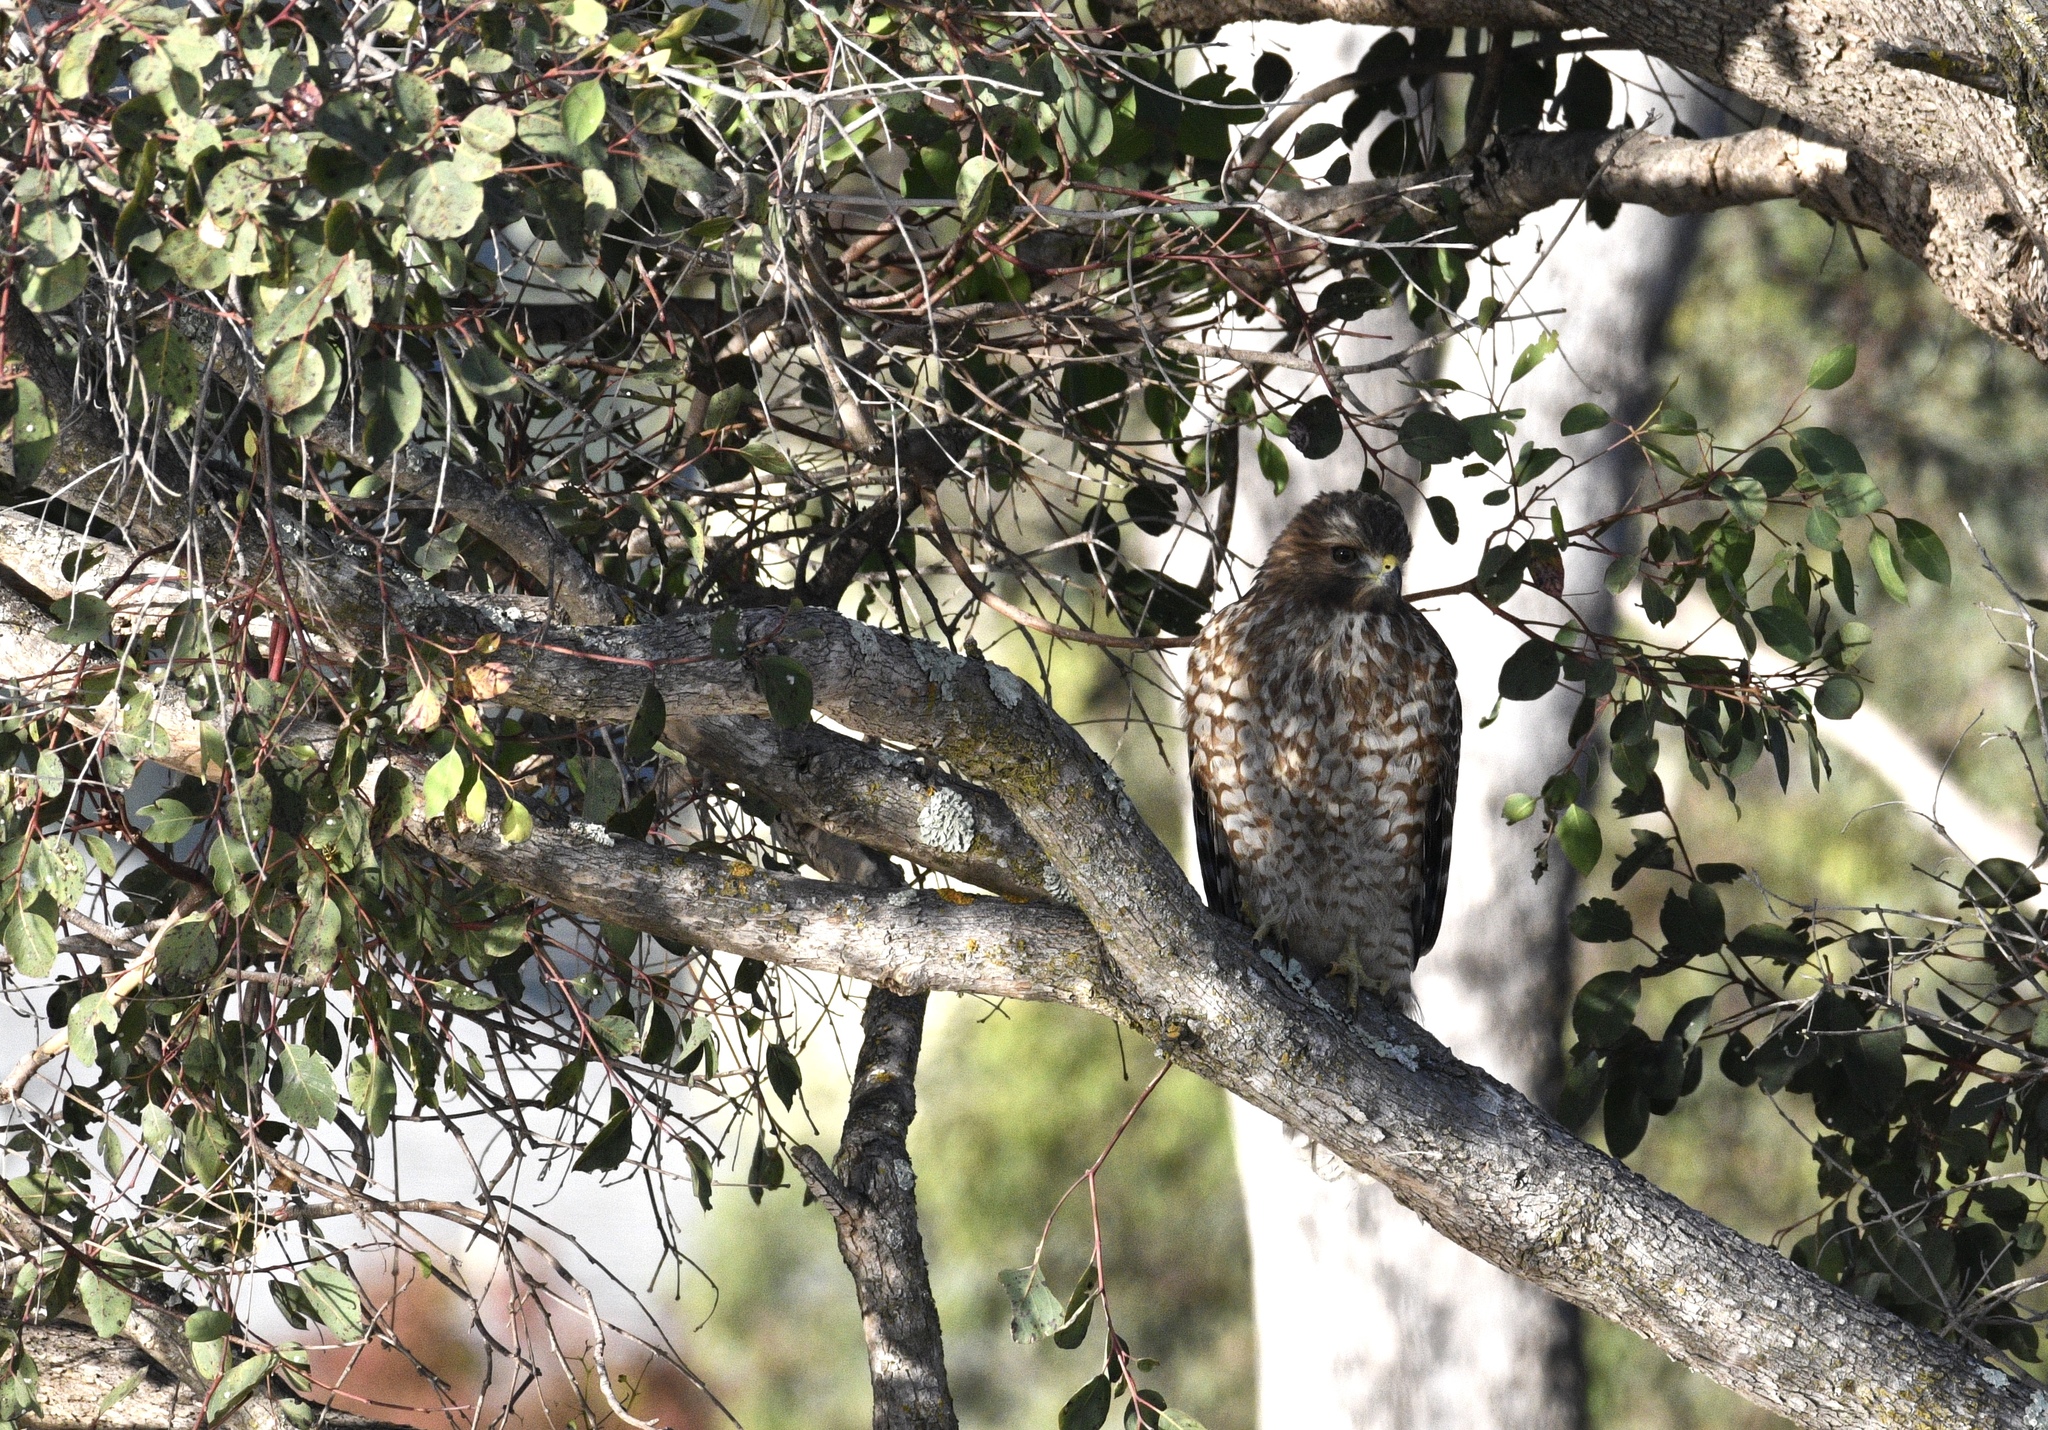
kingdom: Animalia
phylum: Chordata
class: Aves
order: Accipitriformes
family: Accipitridae
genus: Buteo
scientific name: Buteo lineatus
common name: Red-shouldered hawk
